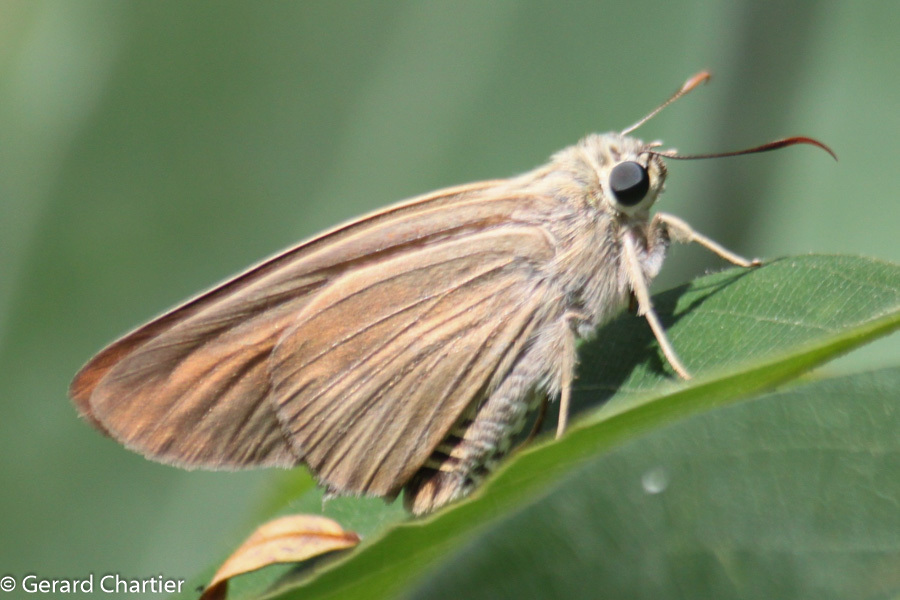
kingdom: Animalia
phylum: Arthropoda
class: Insecta
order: Lepidoptera
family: Hesperiidae
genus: Badamia
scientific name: Badamia exclamationis
